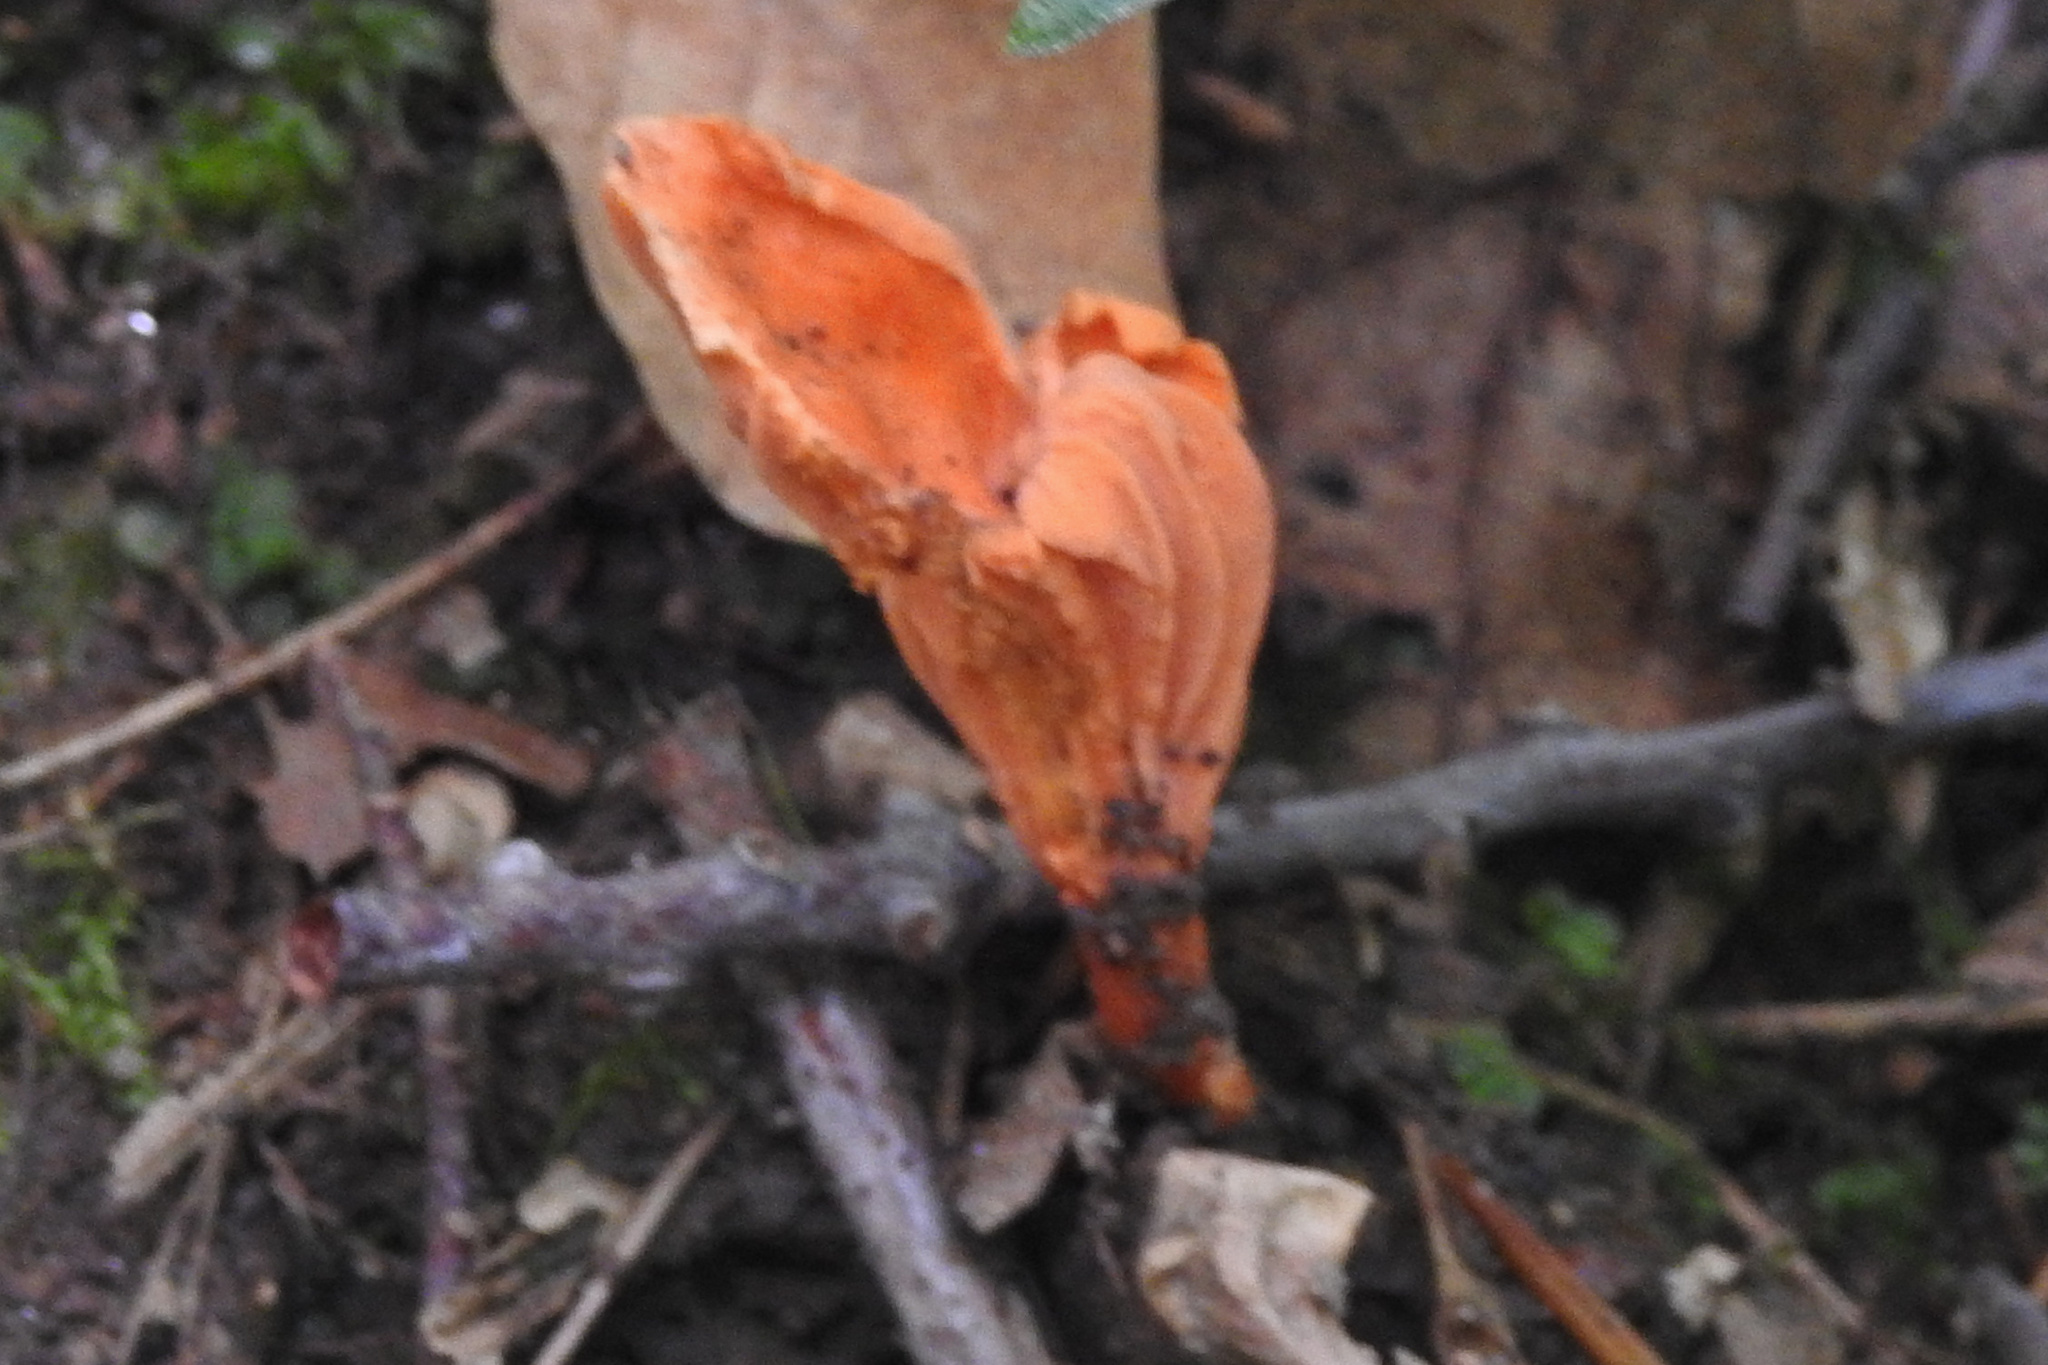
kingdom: Fungi
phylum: Basidiomycota
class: Agaricomycetes
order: Cantharellales
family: Hydnaceae
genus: Cantharellus
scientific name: Cantharellus cinnabarinus
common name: Cinnabar chanterelle
